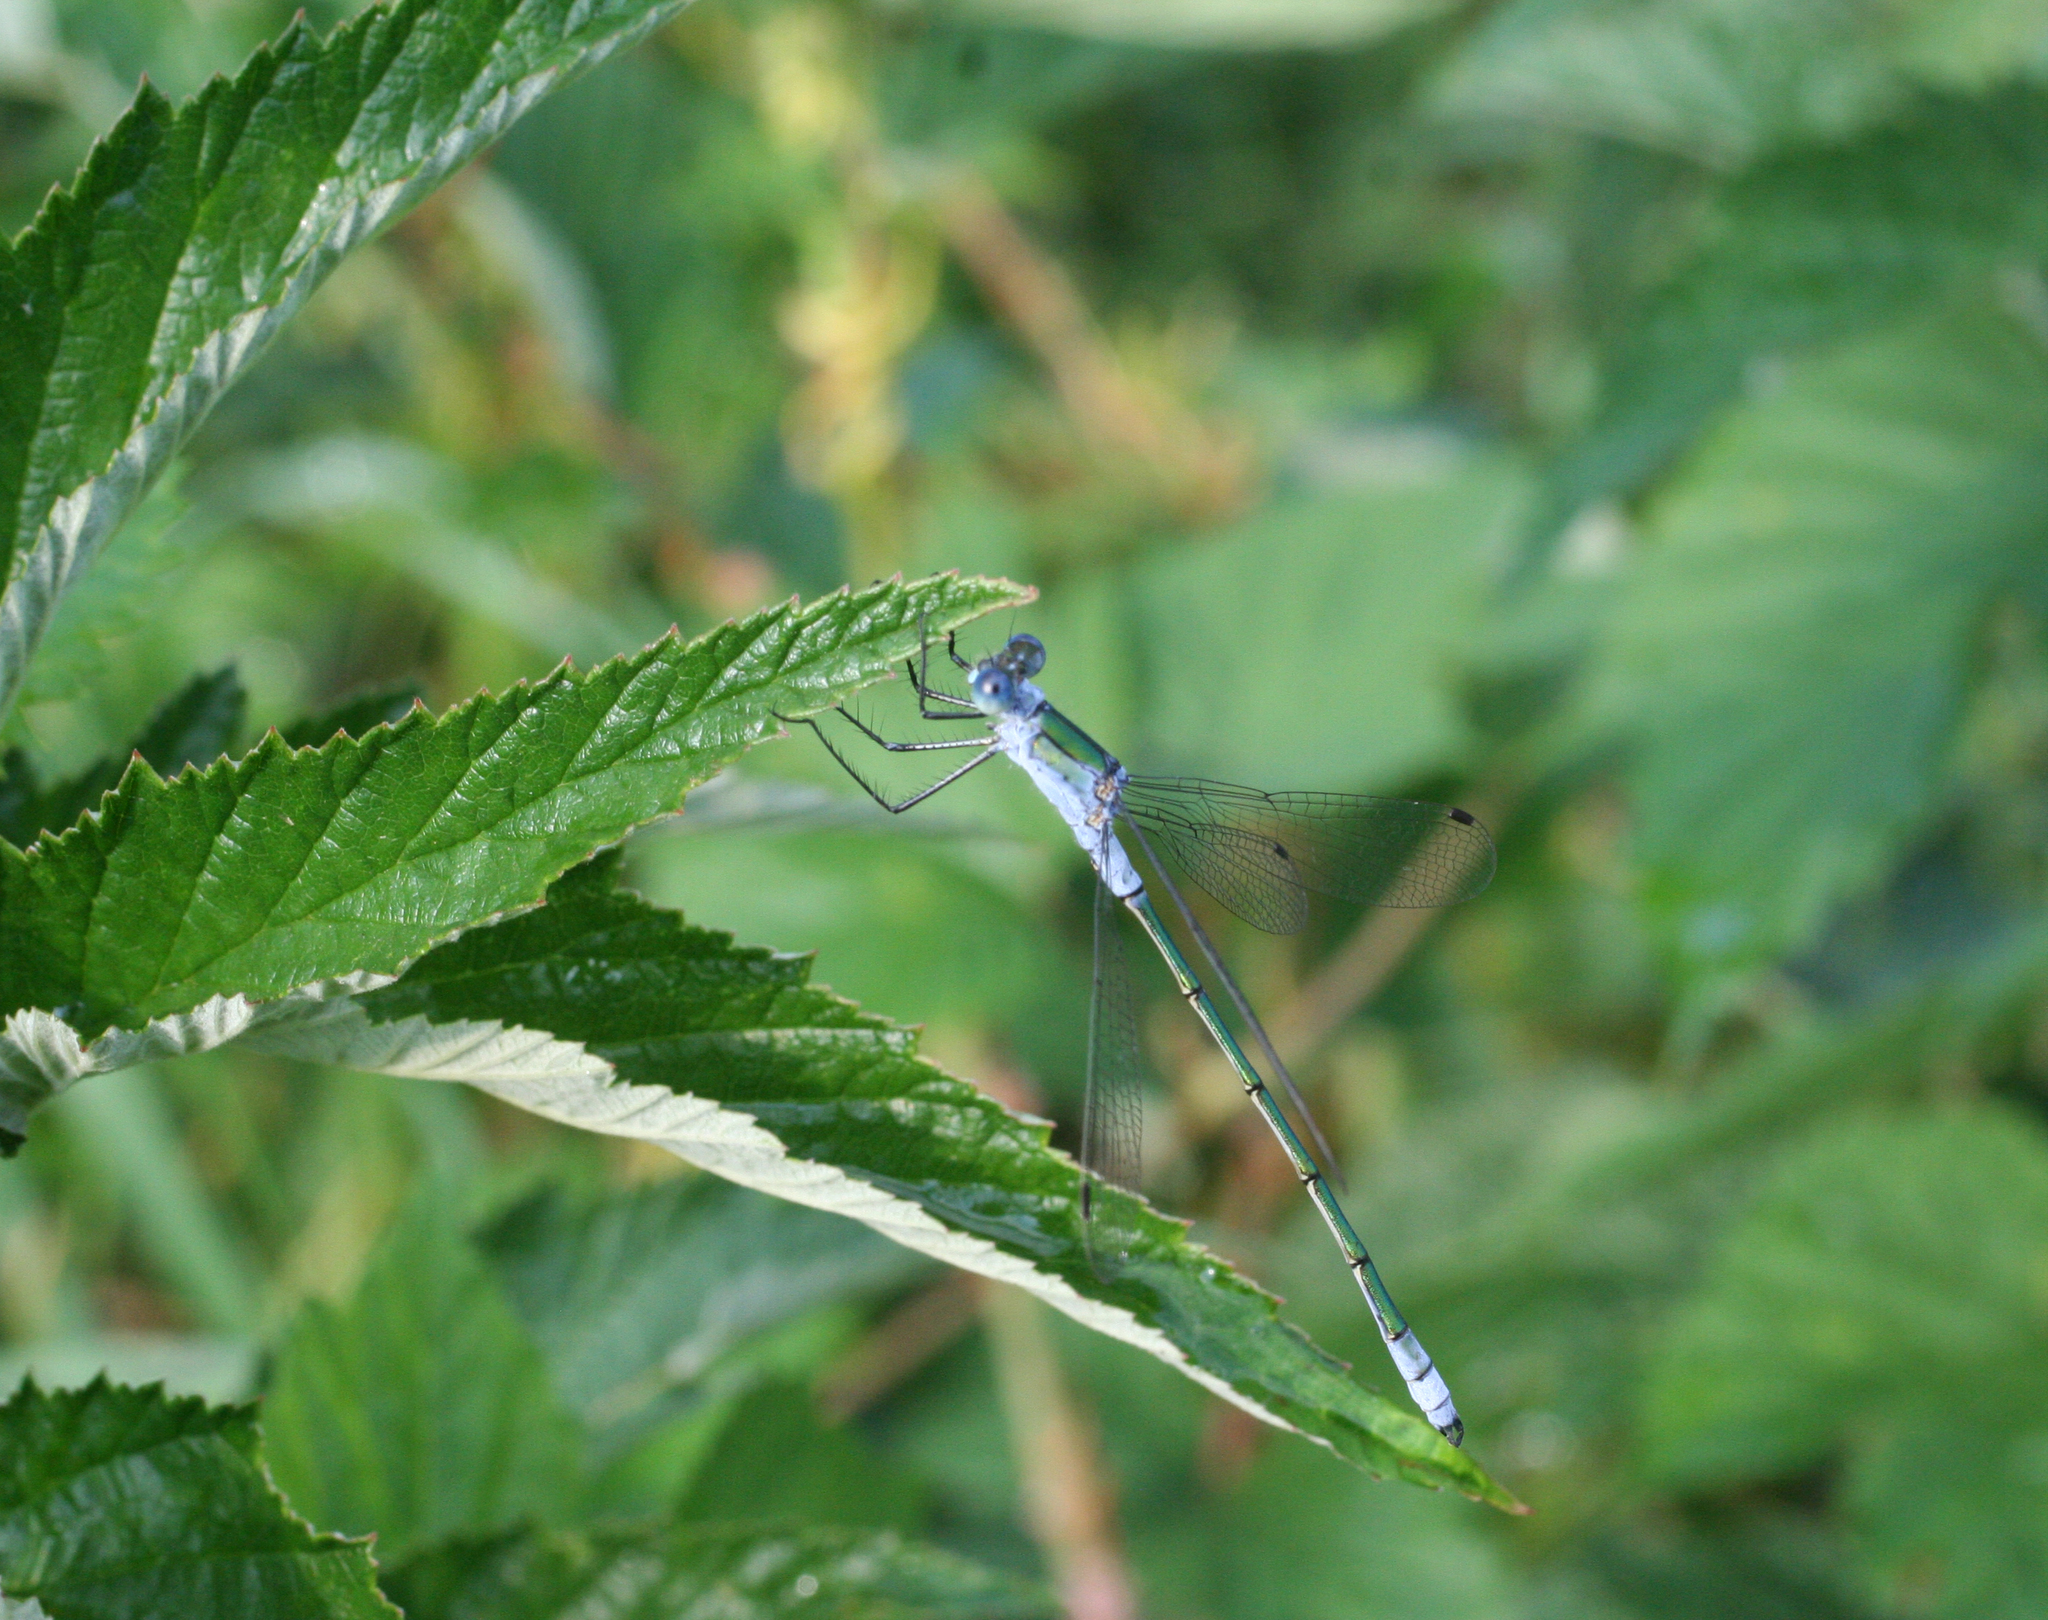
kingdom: Animalia
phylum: Arthropoda
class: Insecta
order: Odonata
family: Lestidae
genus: Lestes
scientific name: Lestes sponsa
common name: Common spreadwing
